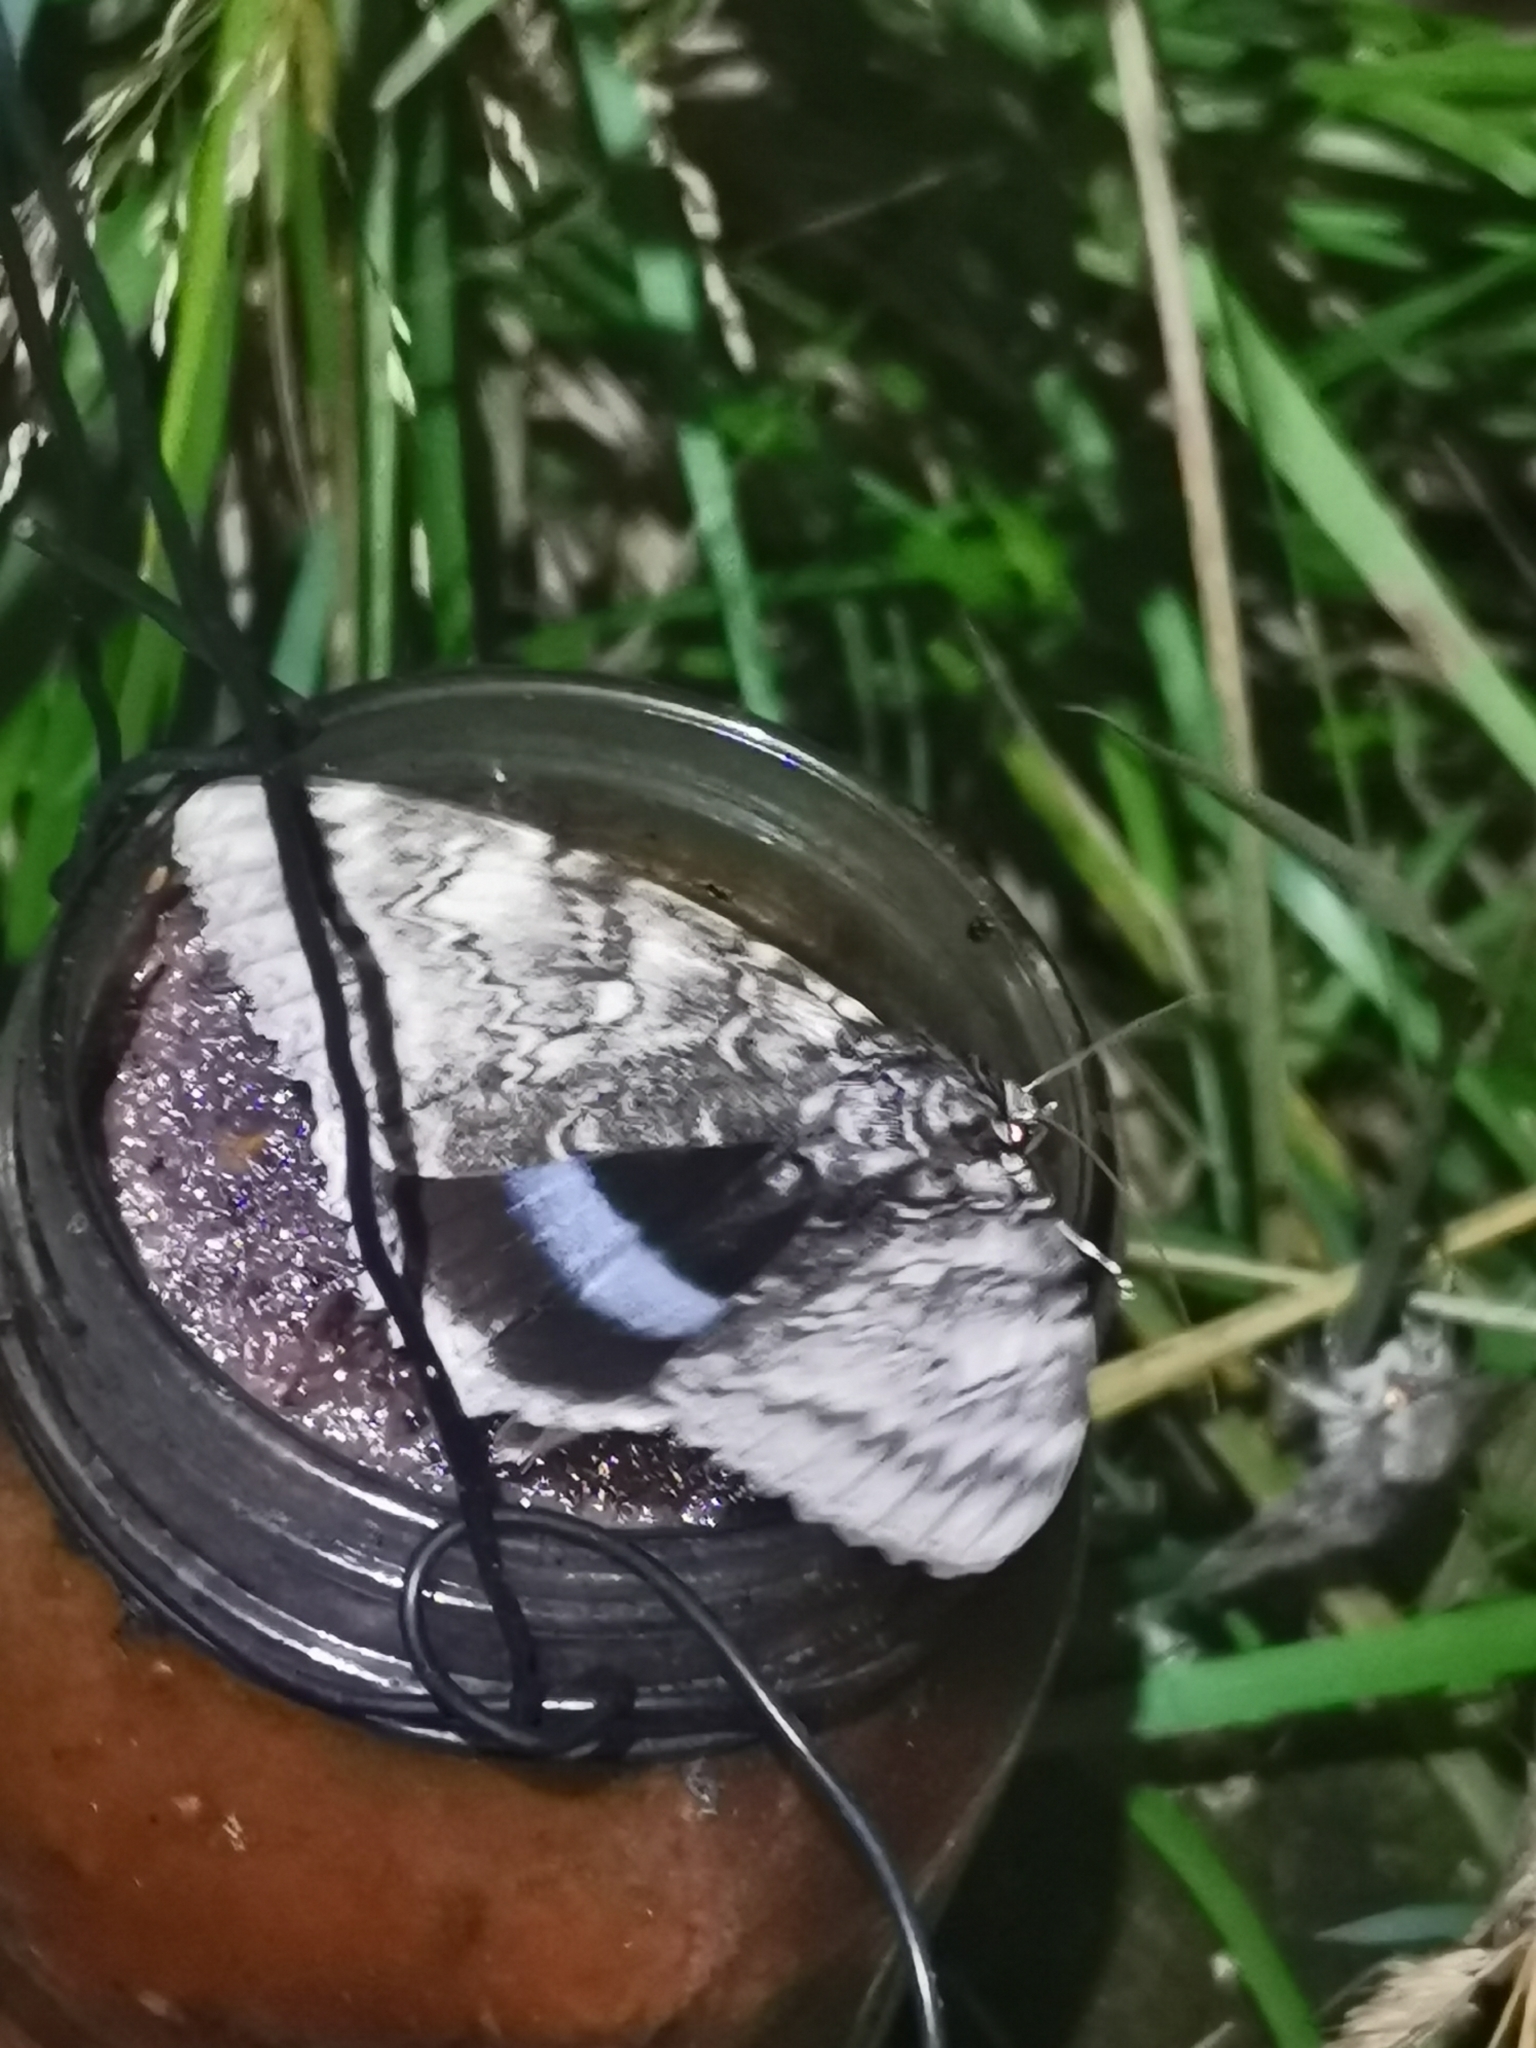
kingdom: Animalia
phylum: Arthropoda
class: Insecta
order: Lepidoptera
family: Erebidae
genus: Catocala
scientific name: Catocala fraxini
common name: Clifden nonpareil
